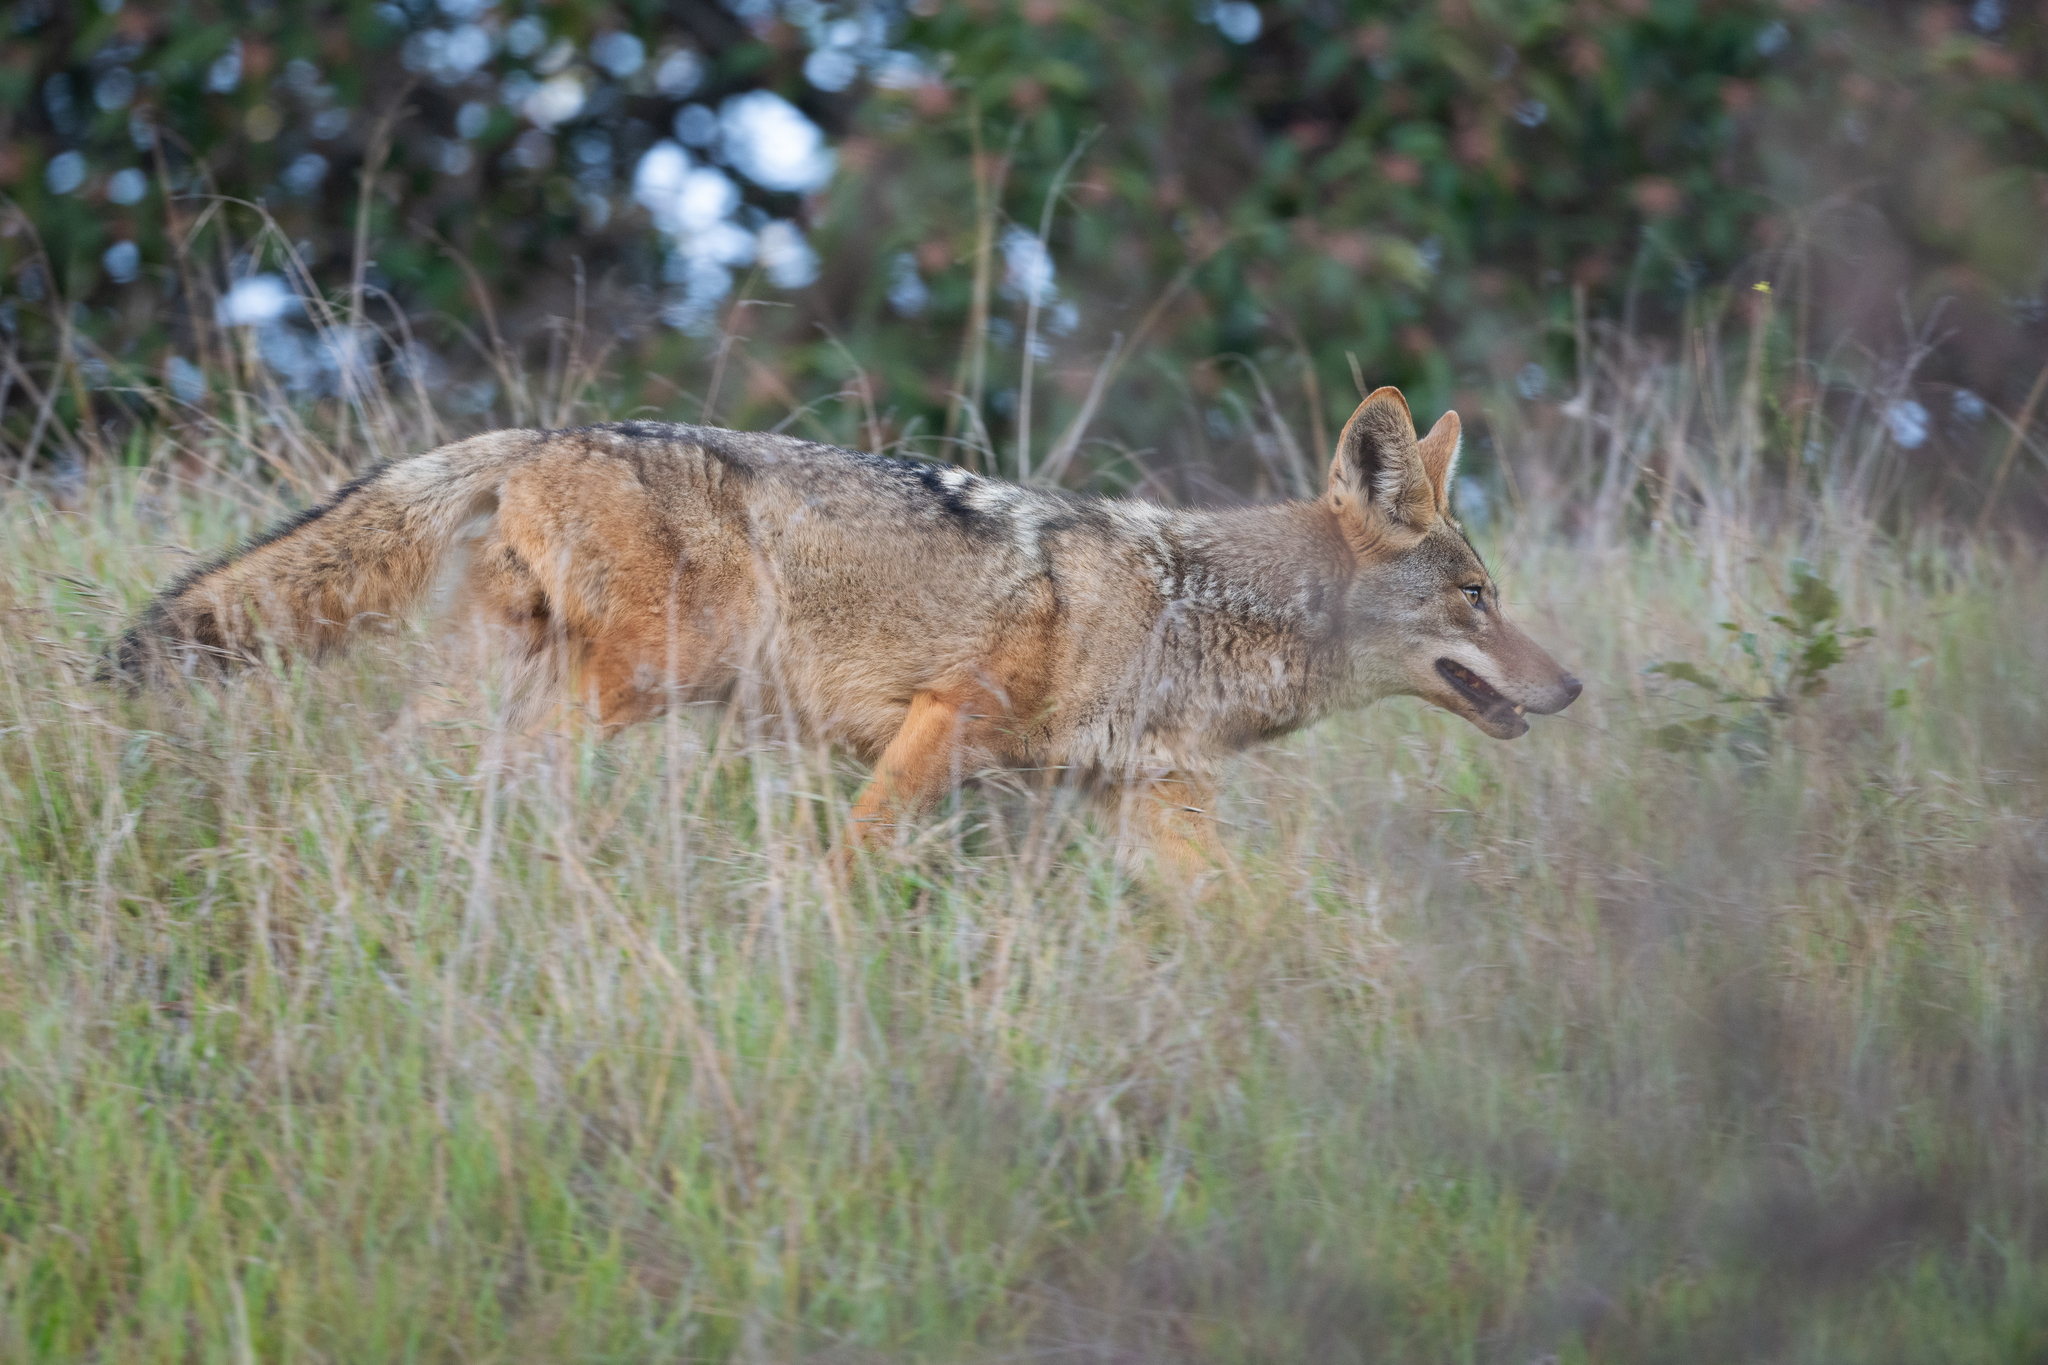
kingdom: Animalia
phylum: Chordata
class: Mammalia
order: Carnivora
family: Canidae
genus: Canis
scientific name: Canis latrans
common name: Coyote
